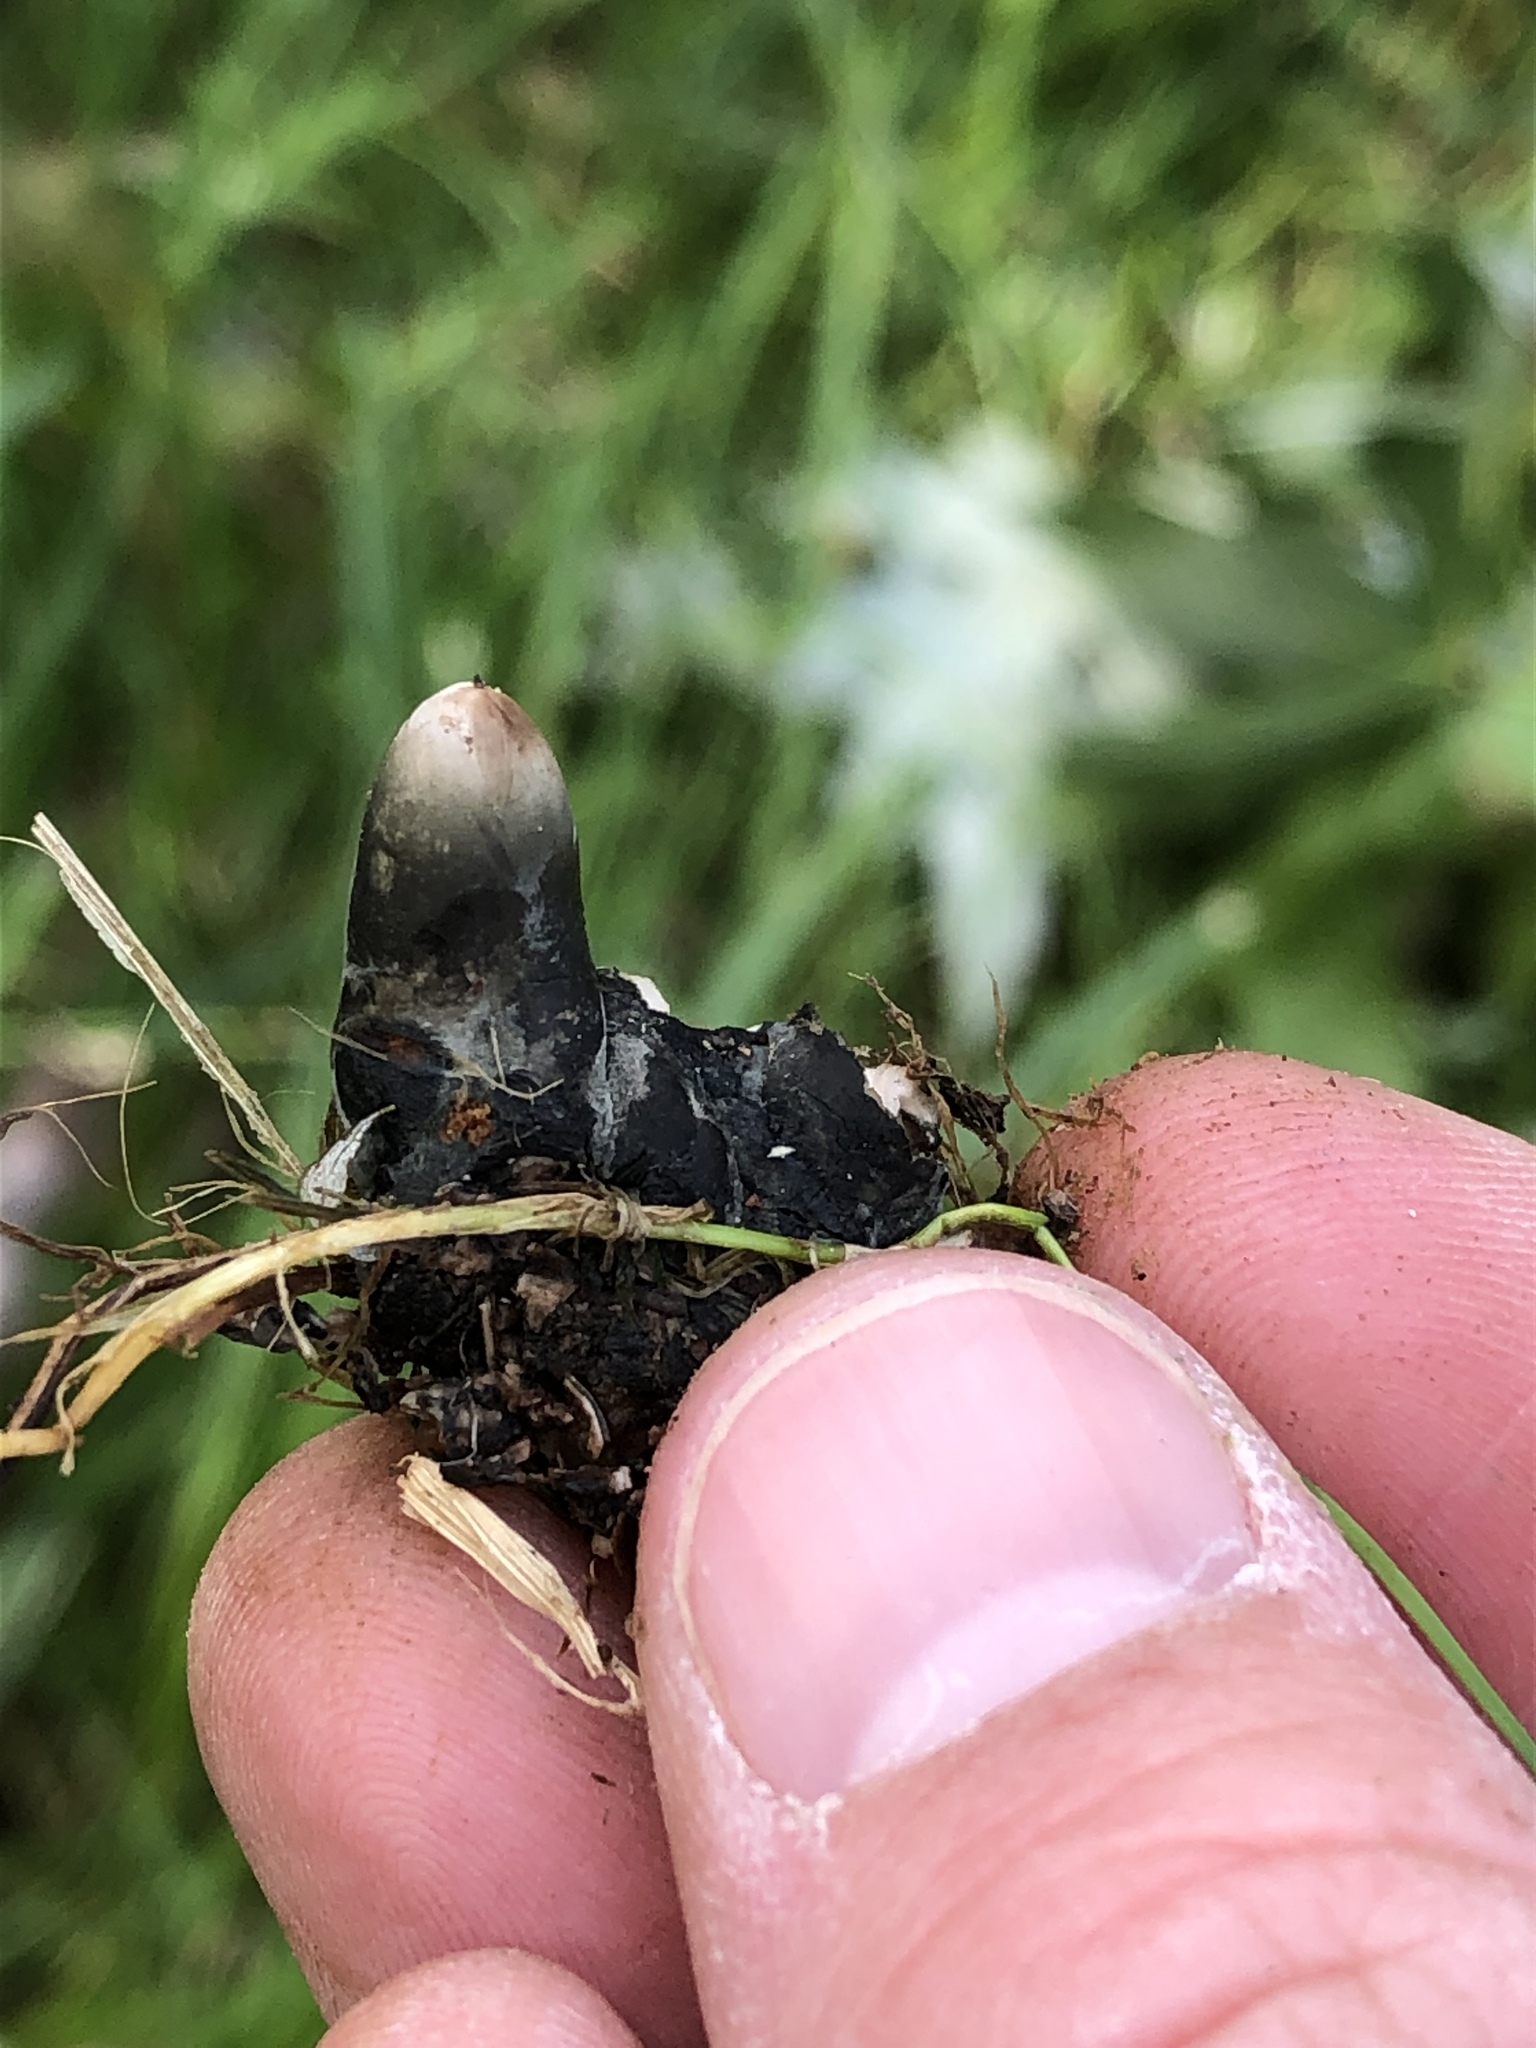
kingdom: Fungi
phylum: Ascomycota
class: Sordariomycetes
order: Xylariales
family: Xylariaceae
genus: Xylaria
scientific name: Xylaria polymorpha
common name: Dead man's fingers
